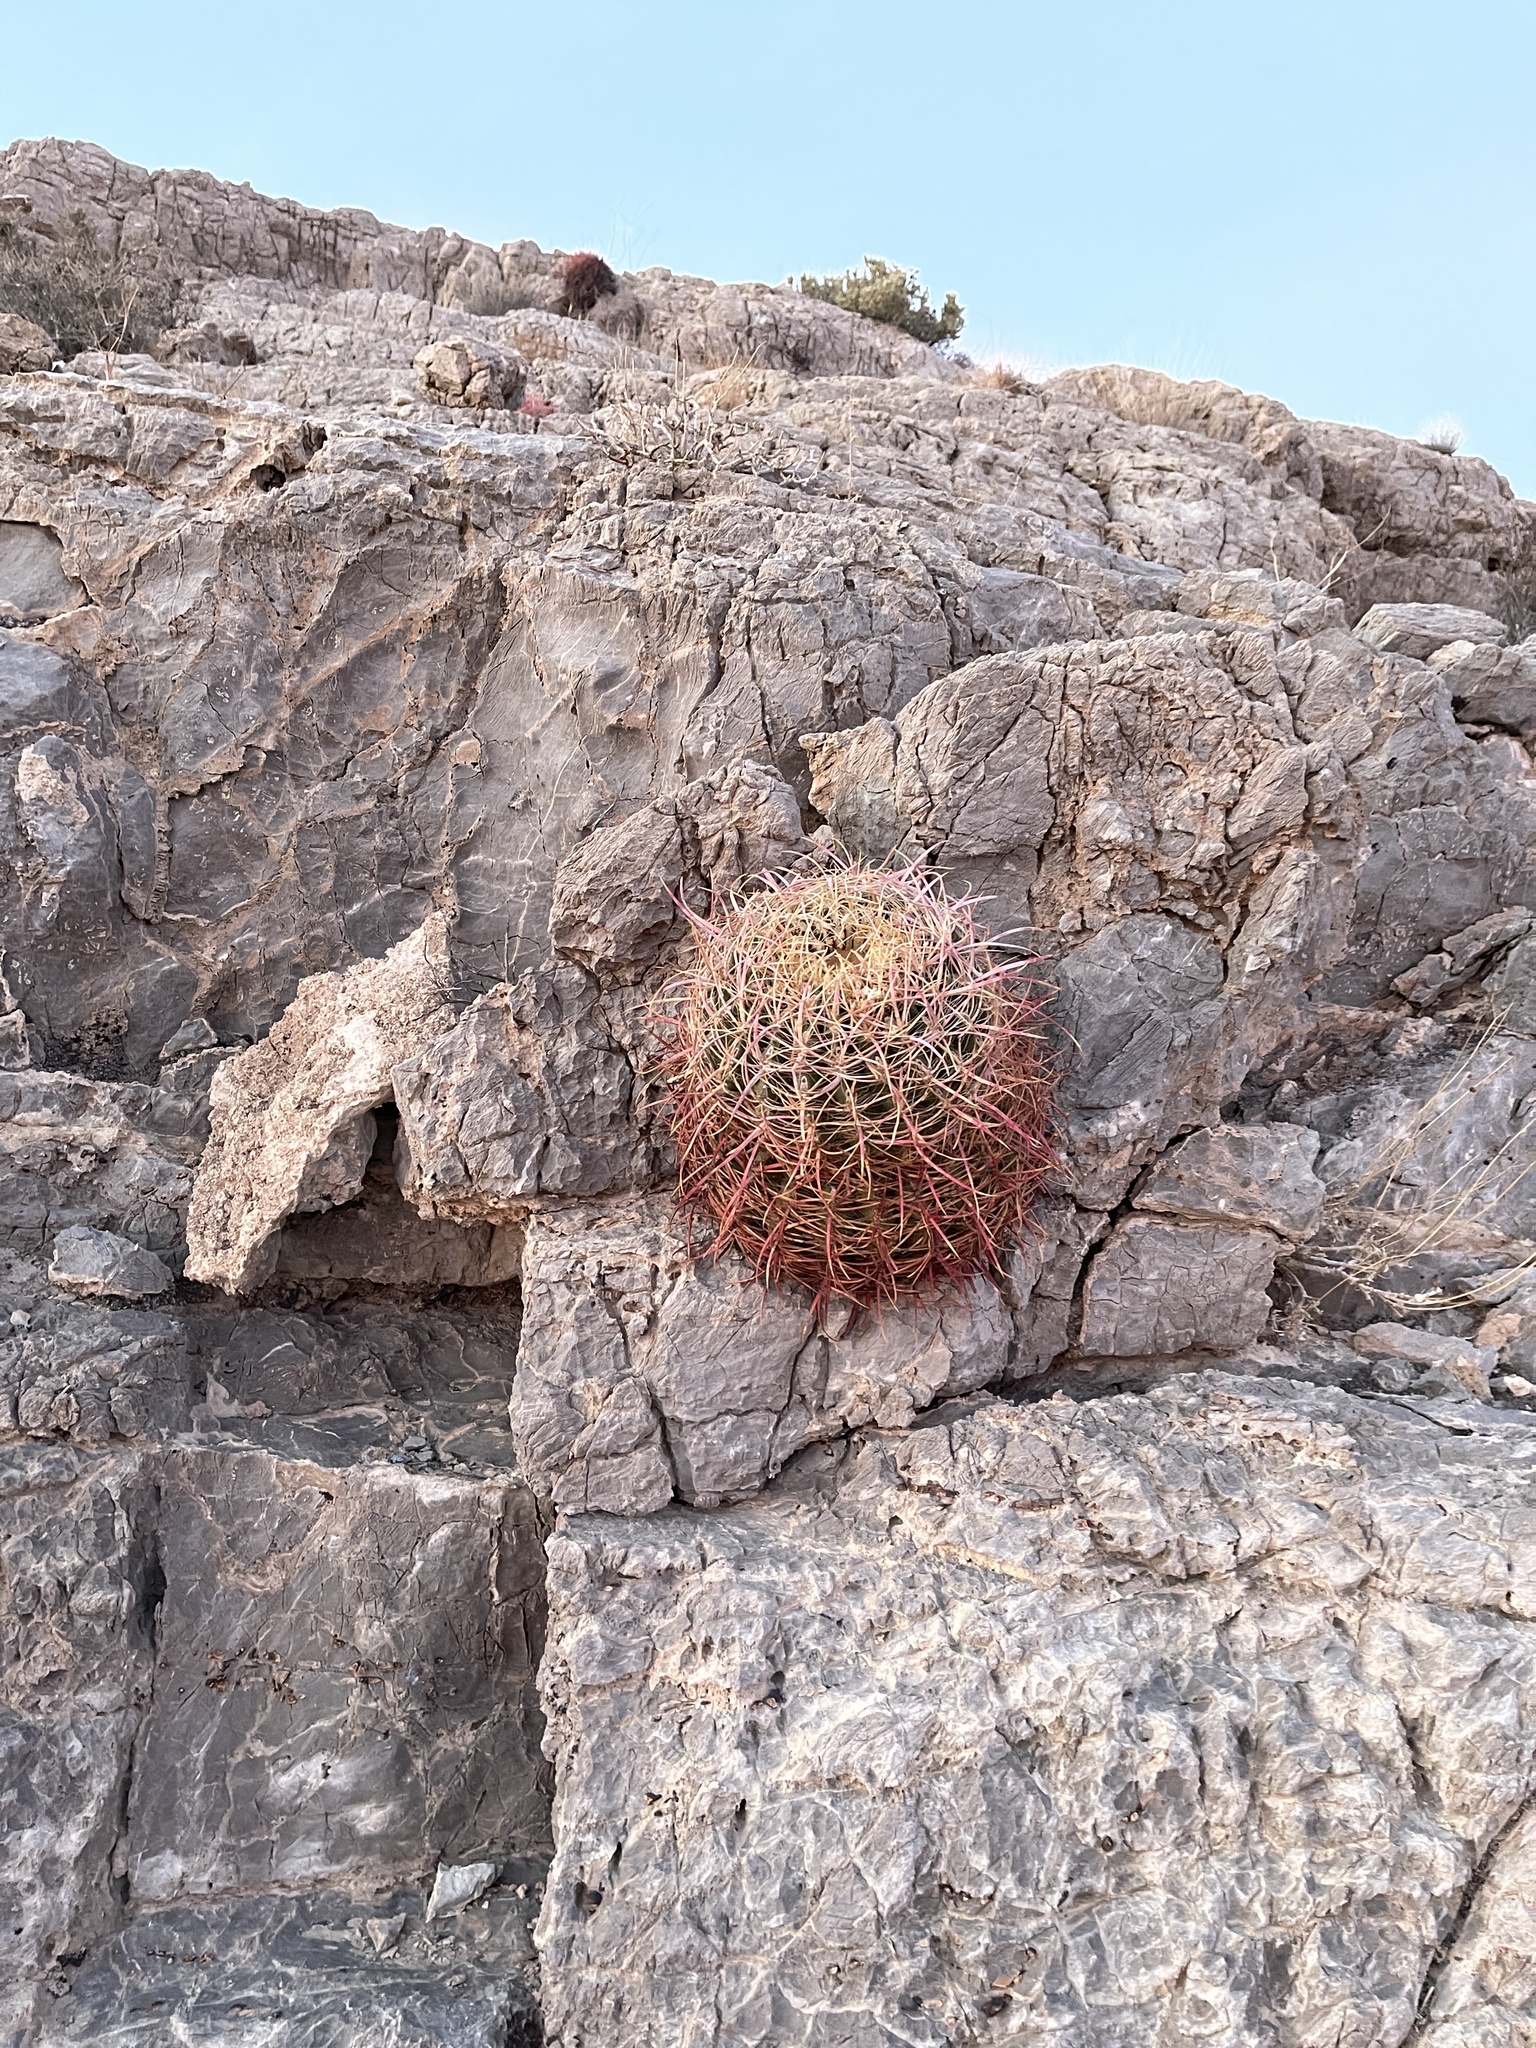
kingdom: Plantae
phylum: Tracheophyta
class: Magnoliopsida
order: Caryophyllales
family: Cactaceae
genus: Ferocactus
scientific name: Ferocactus cylindraceus
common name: California barrel cactus
